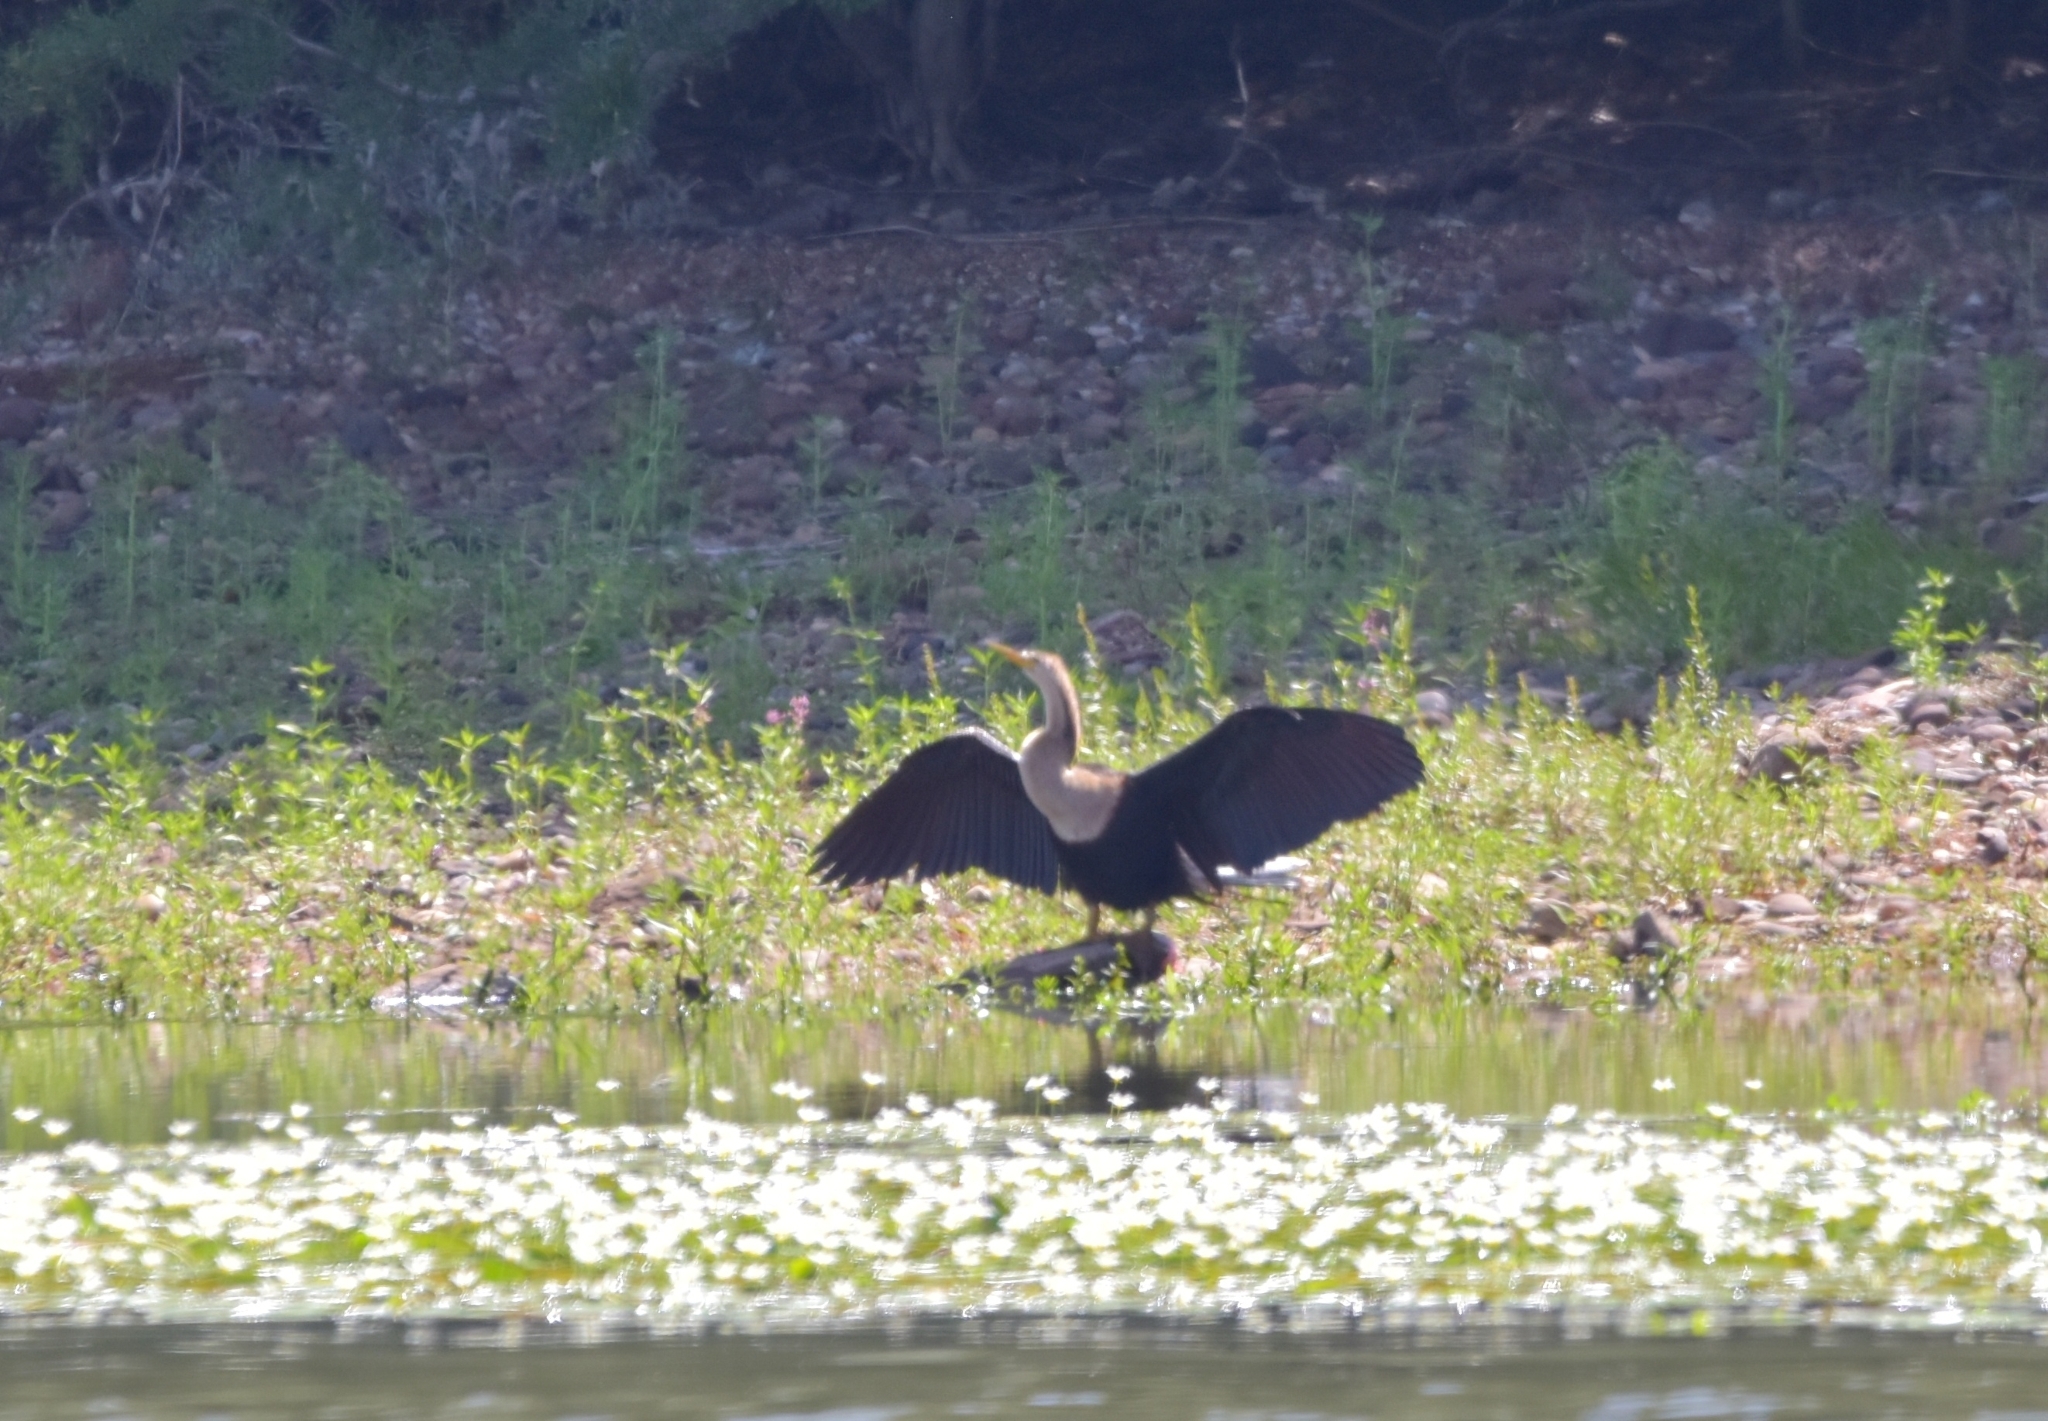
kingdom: Animalia
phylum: Chordata
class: Aves
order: Suliformes
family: Anhingidae
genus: Anhinga
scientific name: Anhinga anhinga
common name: Anhinga
